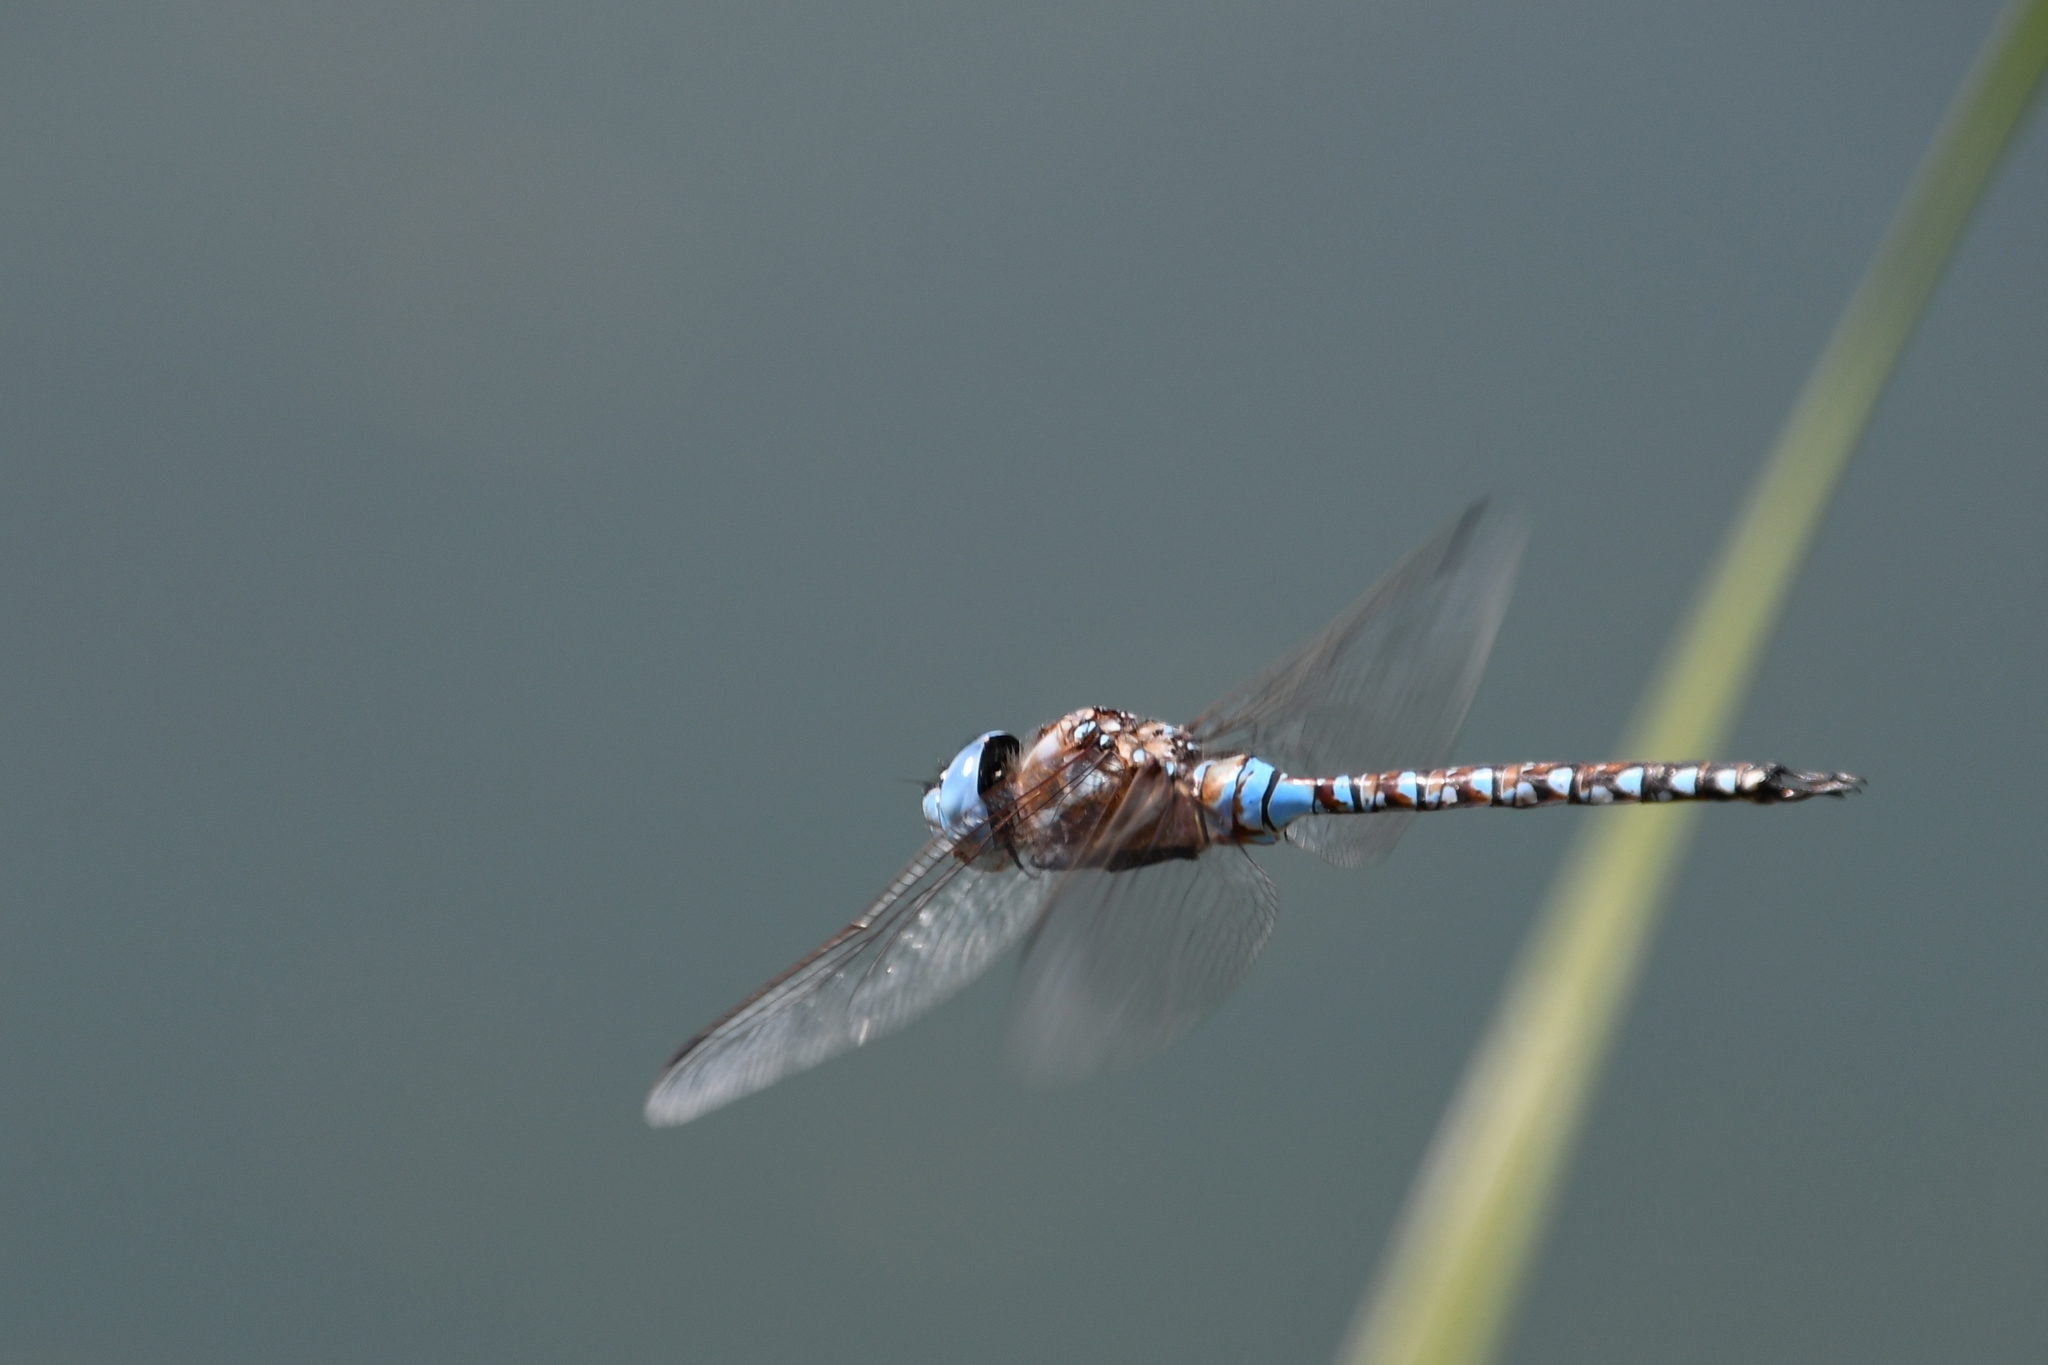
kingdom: Animalia
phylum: Arthropoda
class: Insecta
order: Odonata
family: Aeshnidae
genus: Rhionaeschna
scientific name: Rhionaeschna multicolor
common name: Blue-eyed darner
